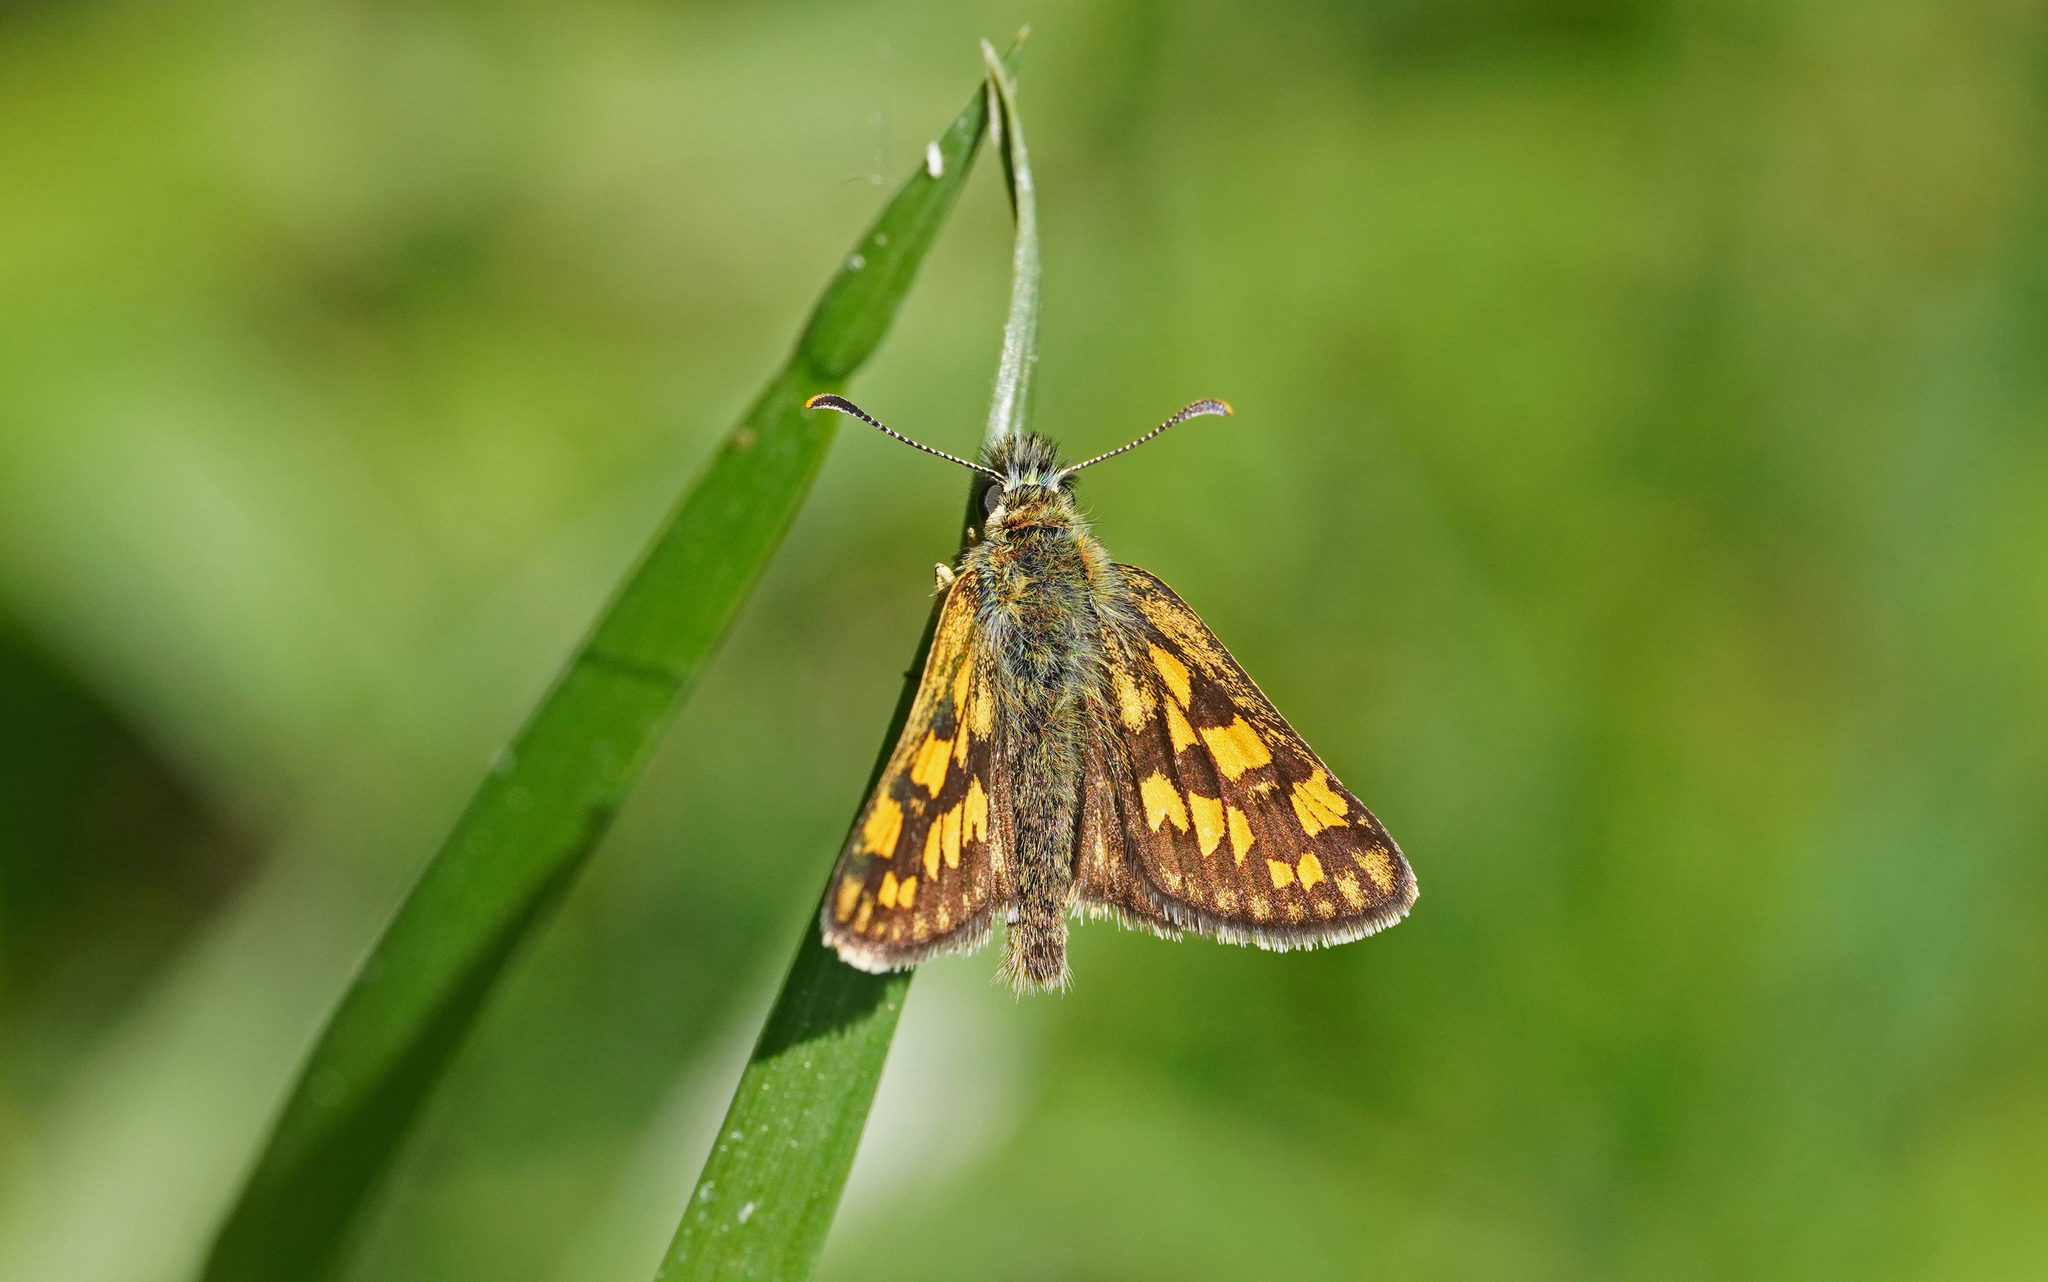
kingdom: Animalia
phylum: Arthropoda
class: Insecta
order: Lepidoptera
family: Hesperiidae
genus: Carterocephalus
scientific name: Carterocephalus palaemon
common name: Chequered skipper
